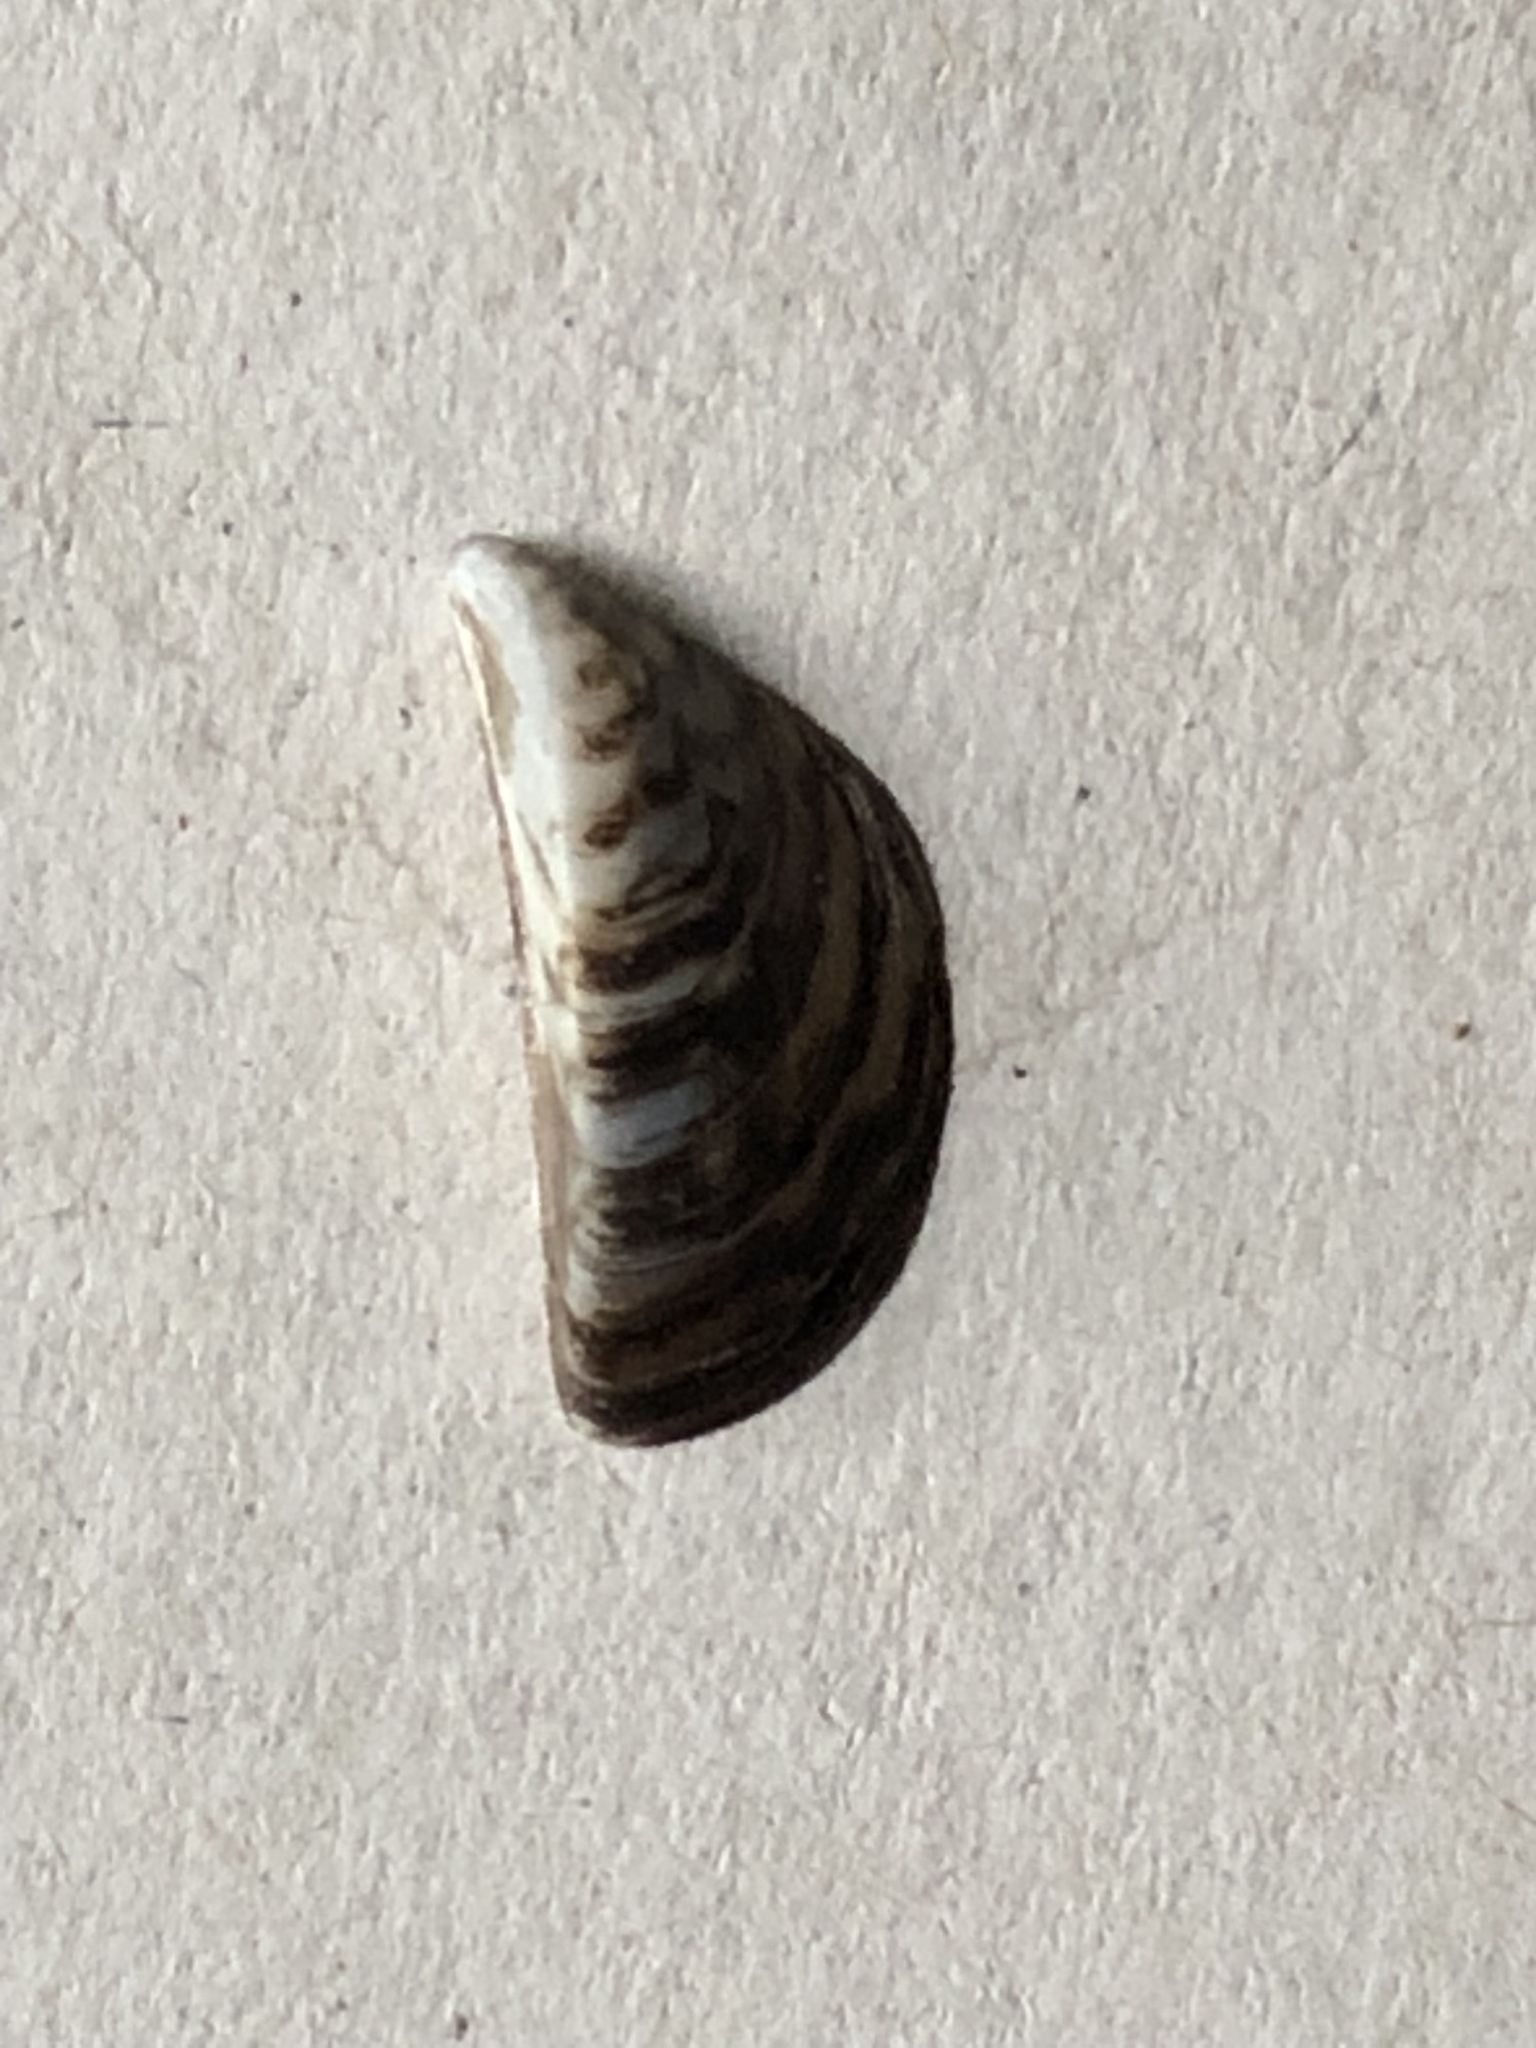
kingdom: Animalia
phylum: Mollusca
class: Bivalvia
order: Myida
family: Dreissenidae
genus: Dreissena
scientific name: Dreissena polymorpha
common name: Zebra mussel
